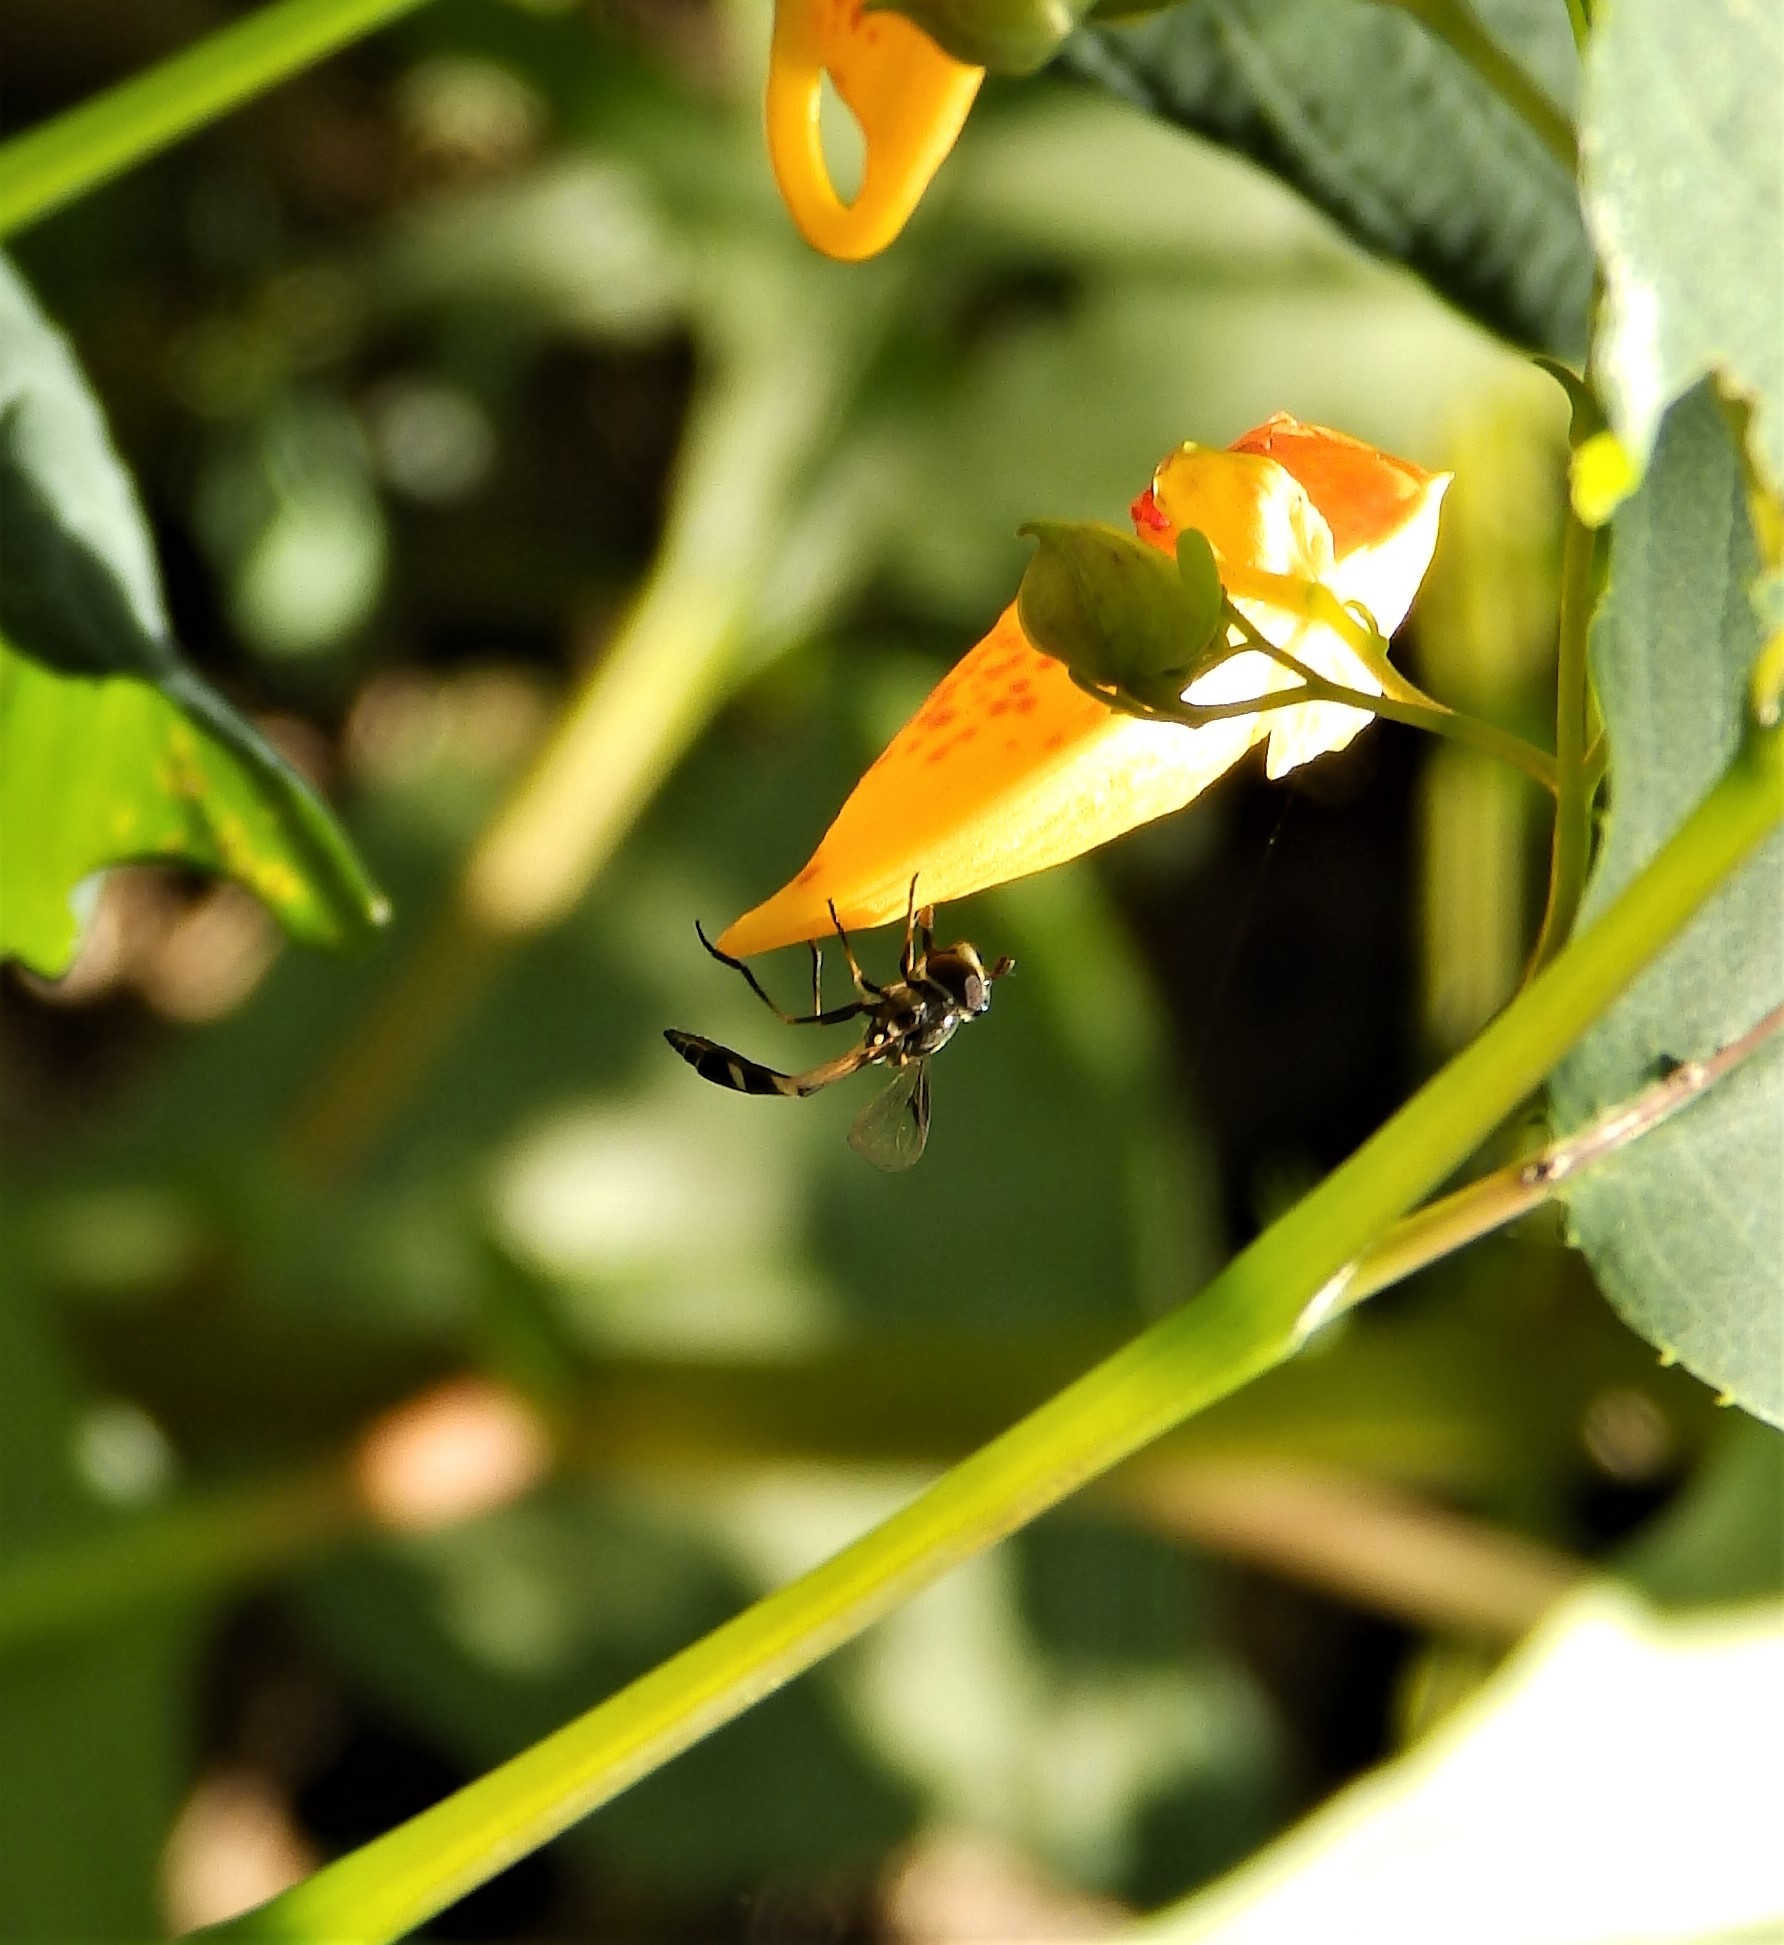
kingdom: Animalia
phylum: Arthropoda
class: Insecta
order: Diptera
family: Syrphidae
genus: Dioprosopa
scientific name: Dioprosopa clavatus
